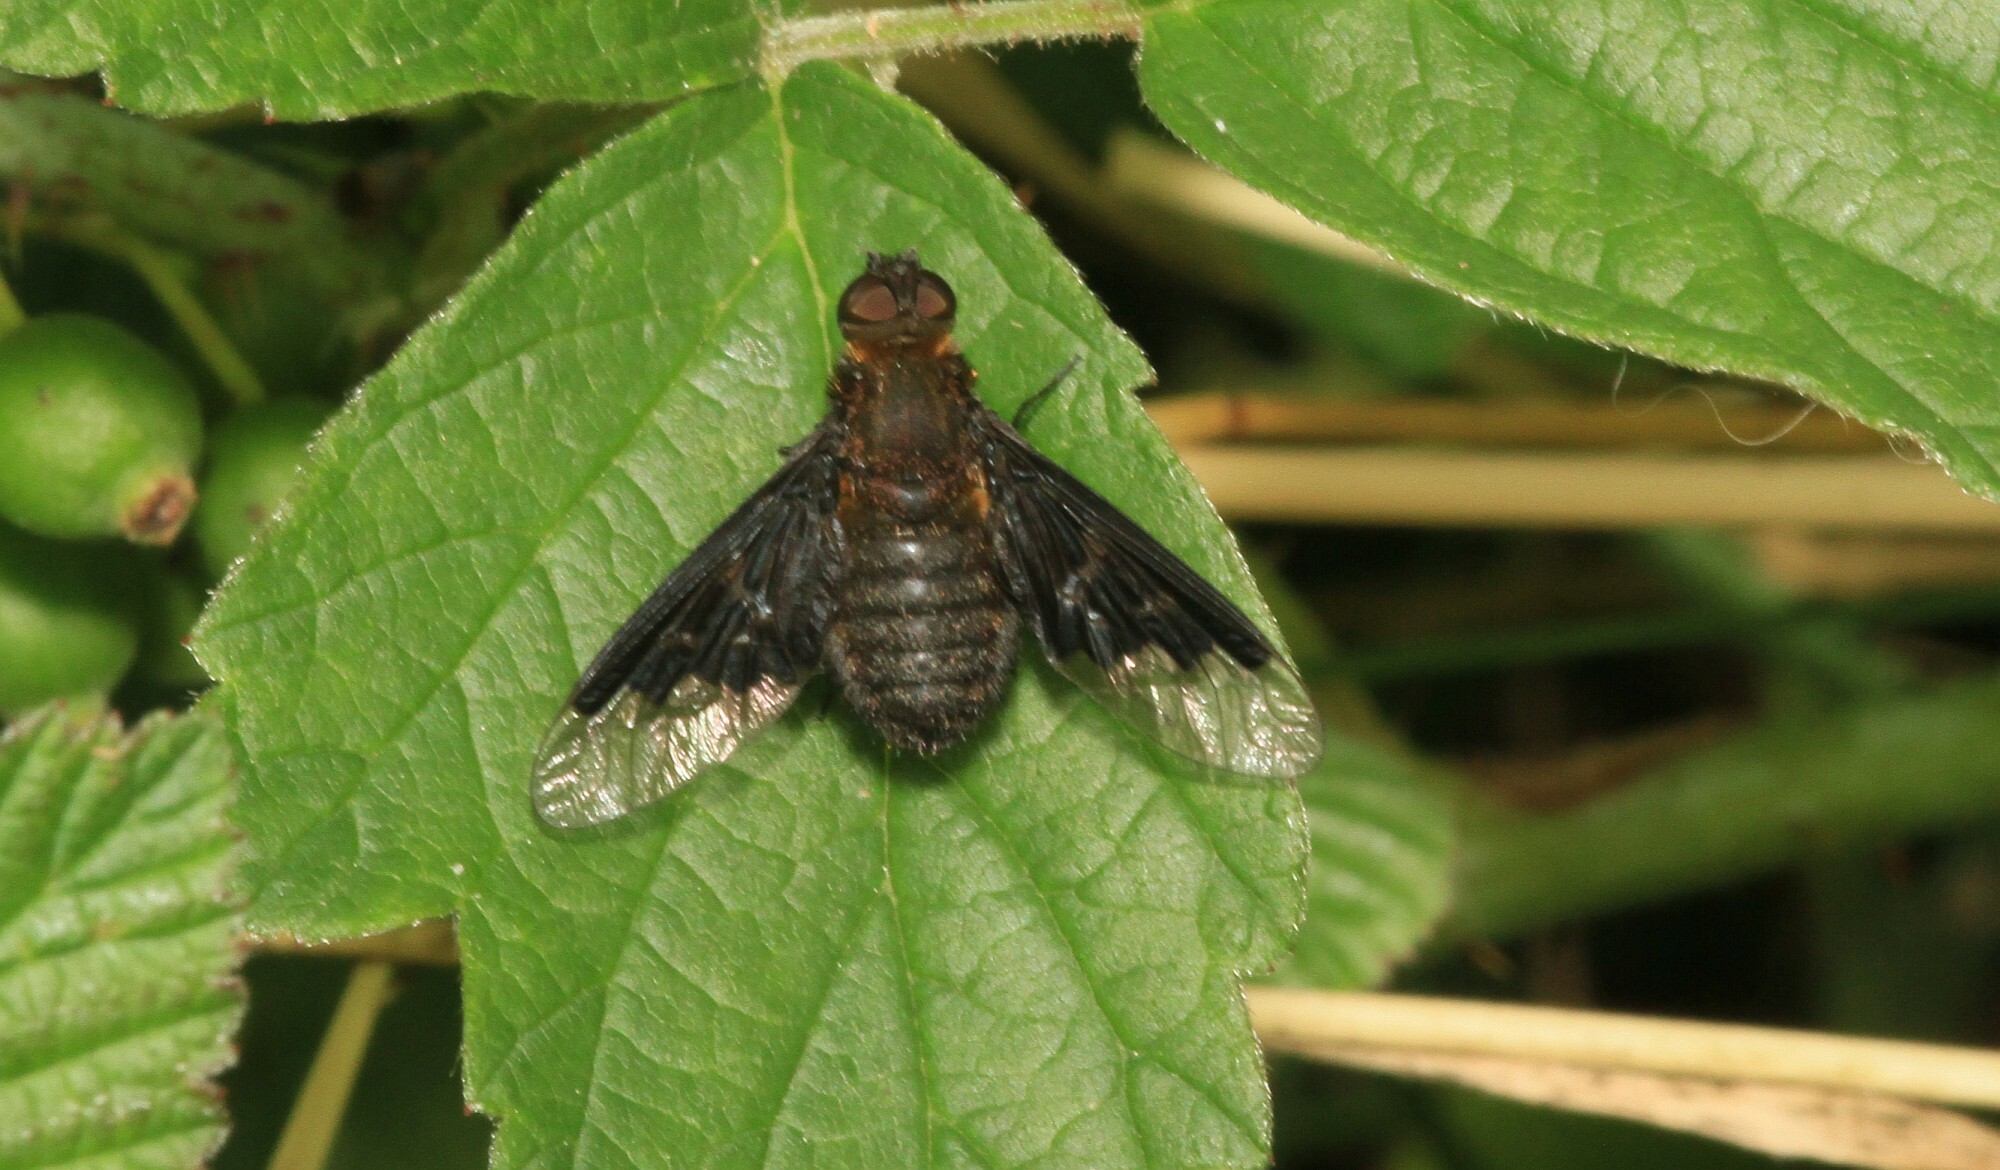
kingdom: Animalia
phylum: Arthropoda
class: Insecta
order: Diptera
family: Bombyliidae
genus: Hemipenthes
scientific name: Hemipenthes morio
